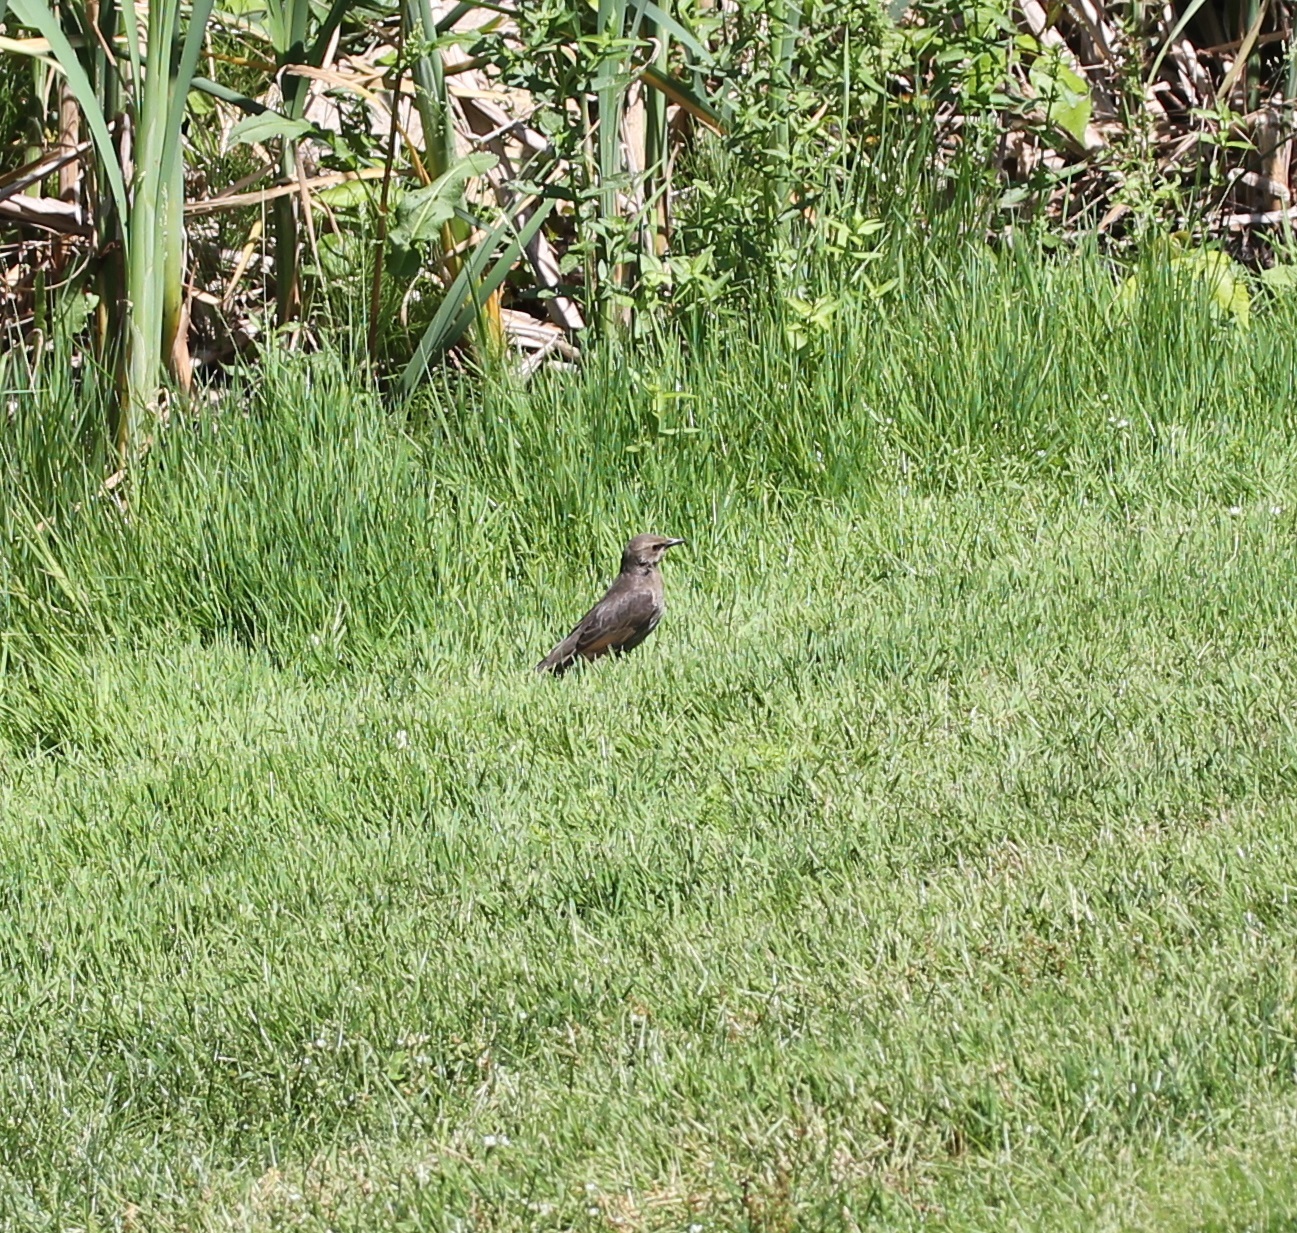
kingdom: Animalia
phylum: Chordata
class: Aves
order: Passeriformes
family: Sturnidae
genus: Sturnus
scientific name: Sturnus vulgaris
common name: Common starling
